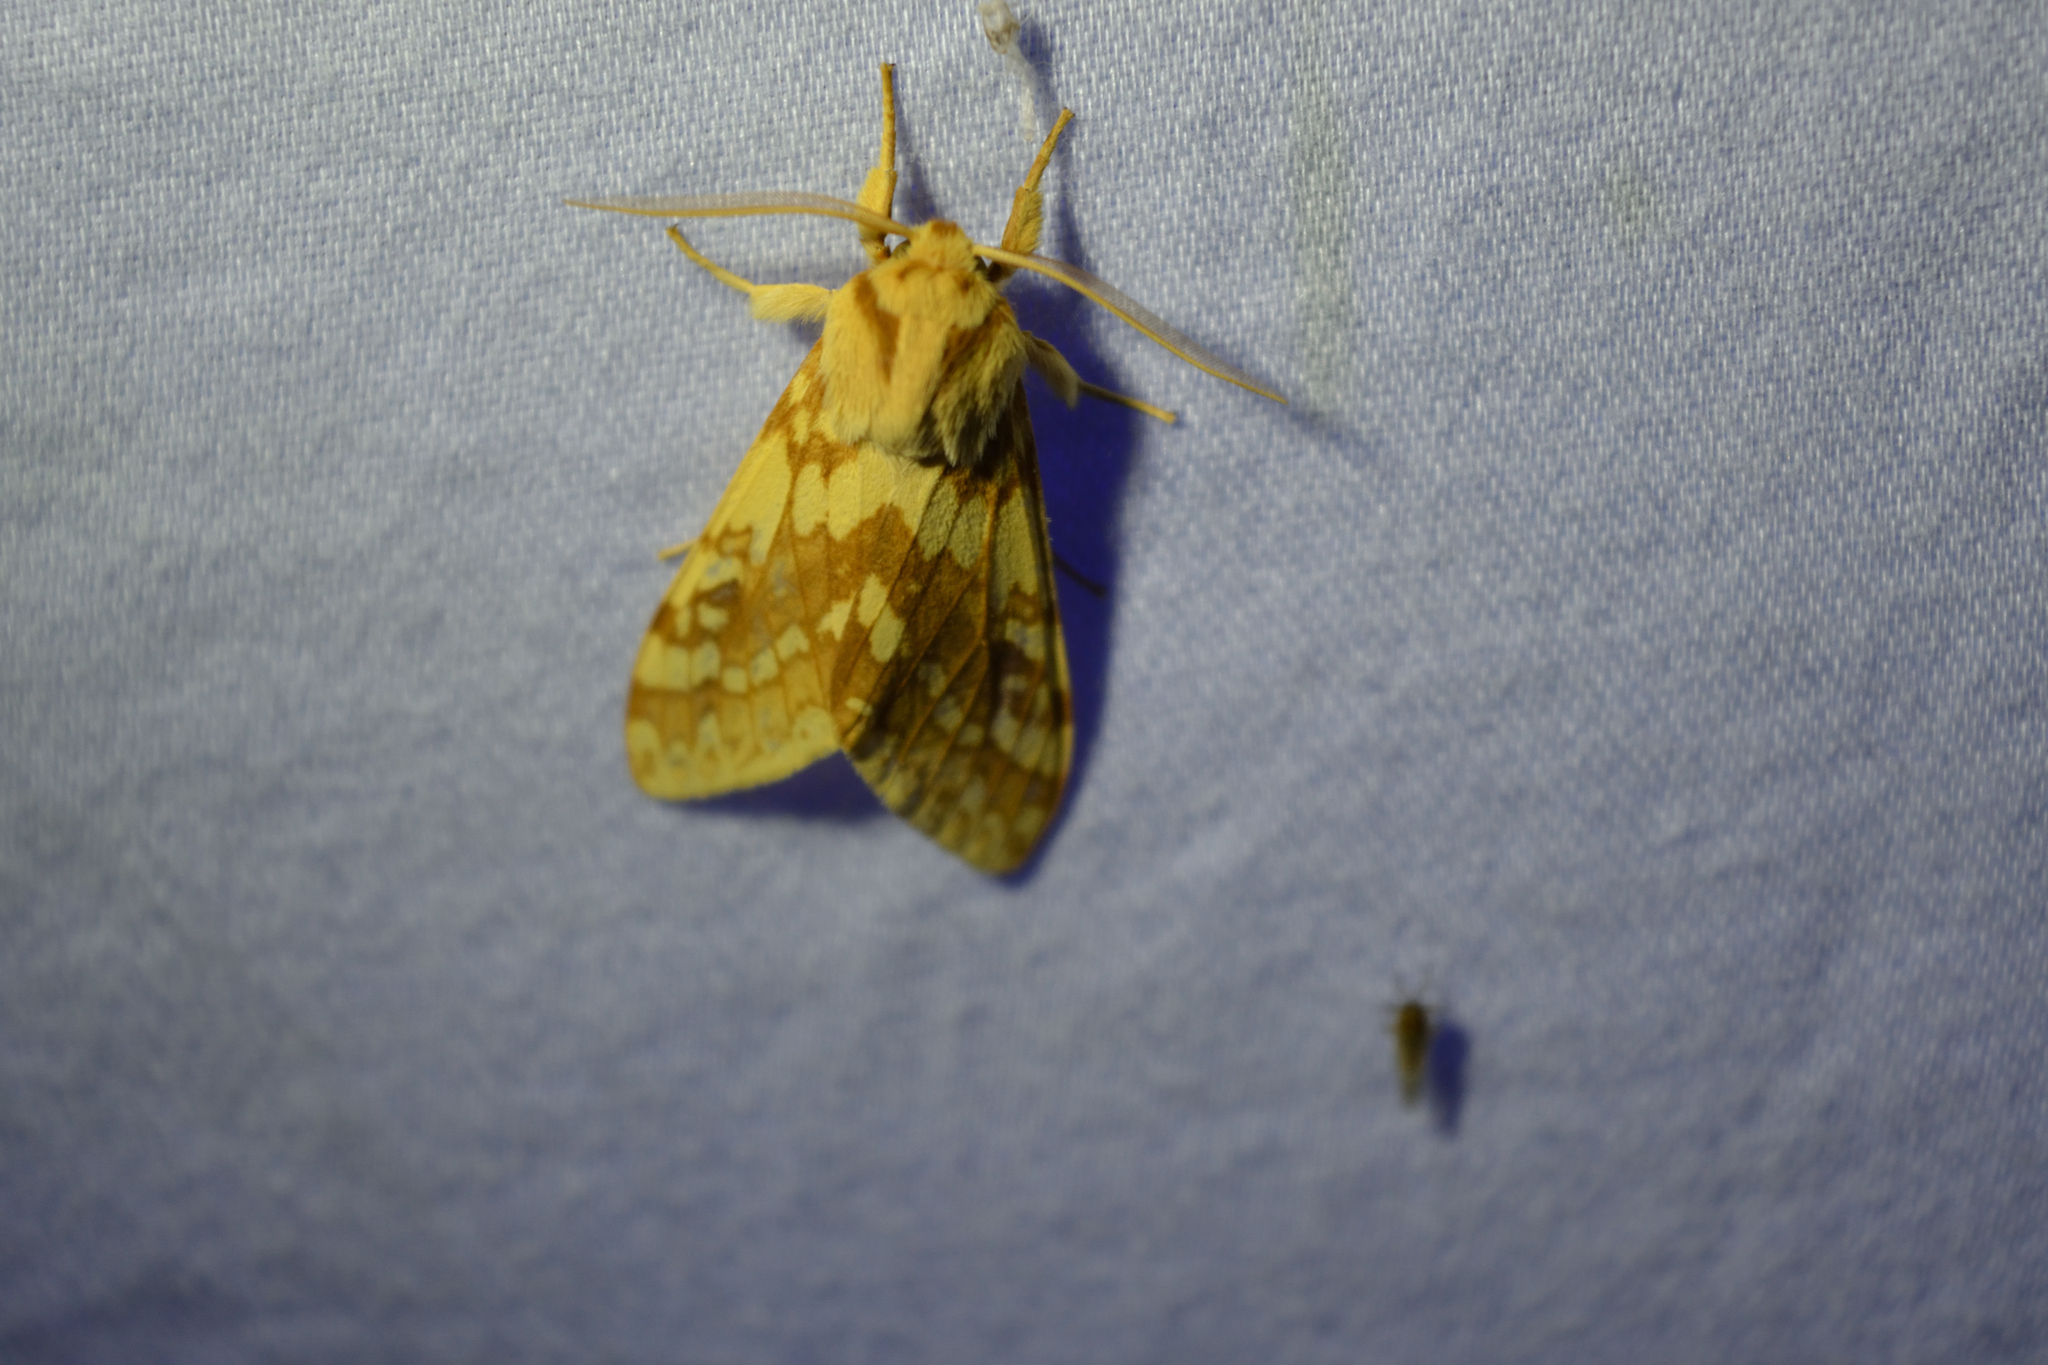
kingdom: Animalia
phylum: Arthropoda
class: Insecta
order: Lepidoptera
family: Erebidae
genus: Lophocampa
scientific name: Lophocampa maculata
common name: Spotted tussock moth
